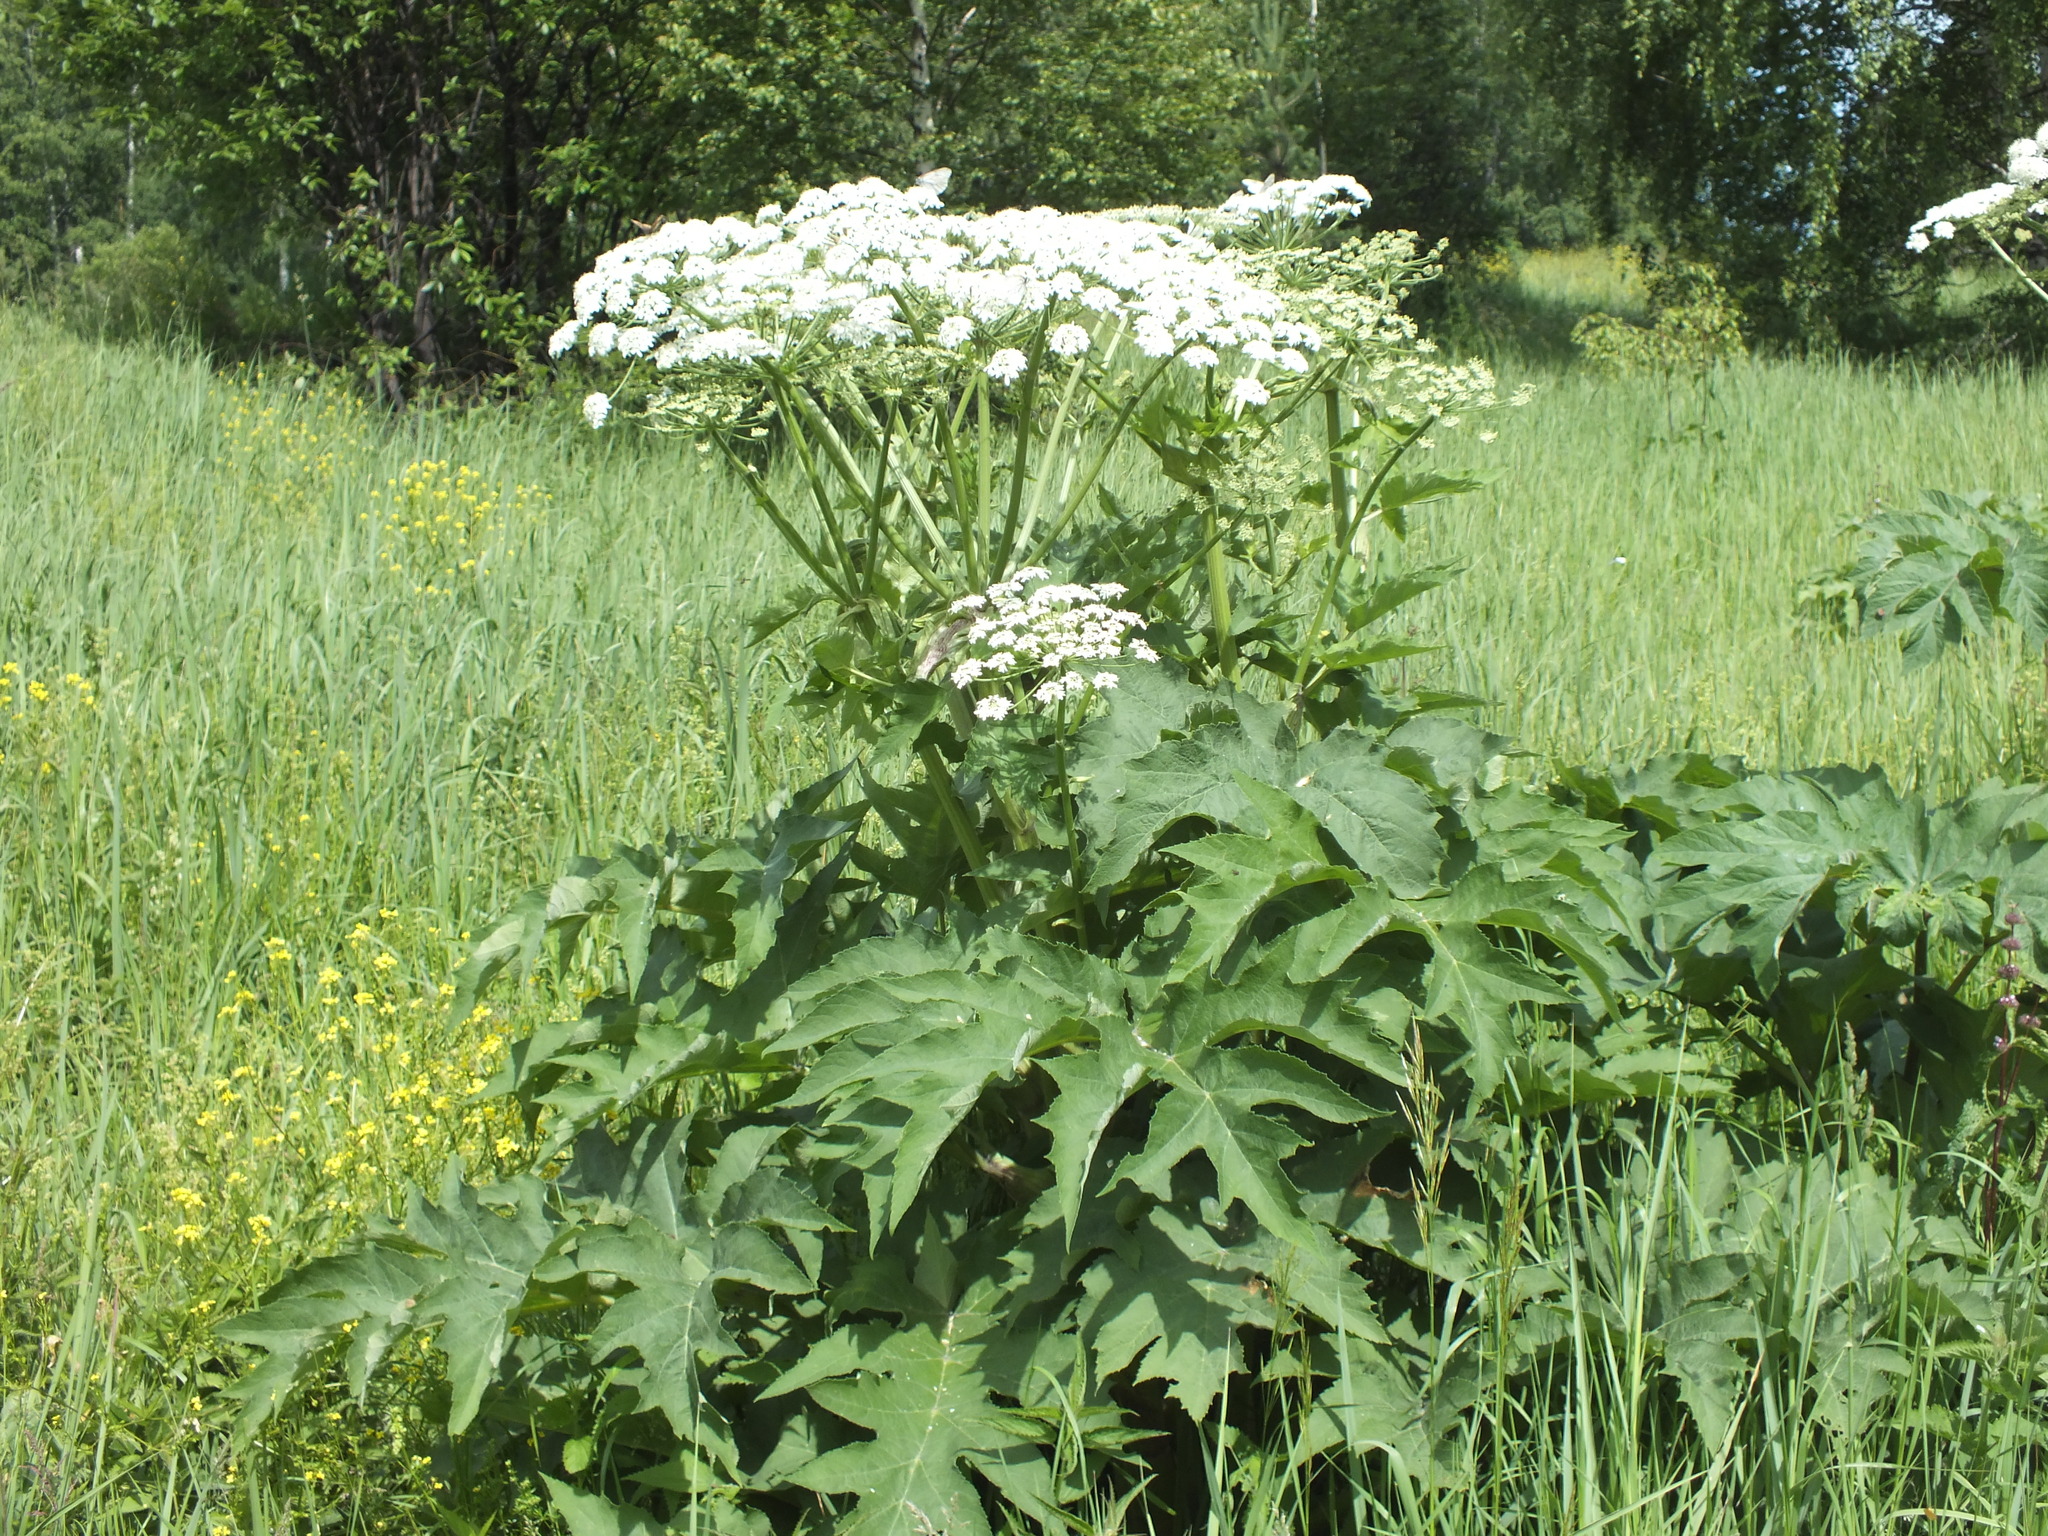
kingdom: Plantae
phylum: Tracheophyta
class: Magnoliopsida
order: Apiales
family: Apiaceae
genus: Heracleum
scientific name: Heracleum dissectum
